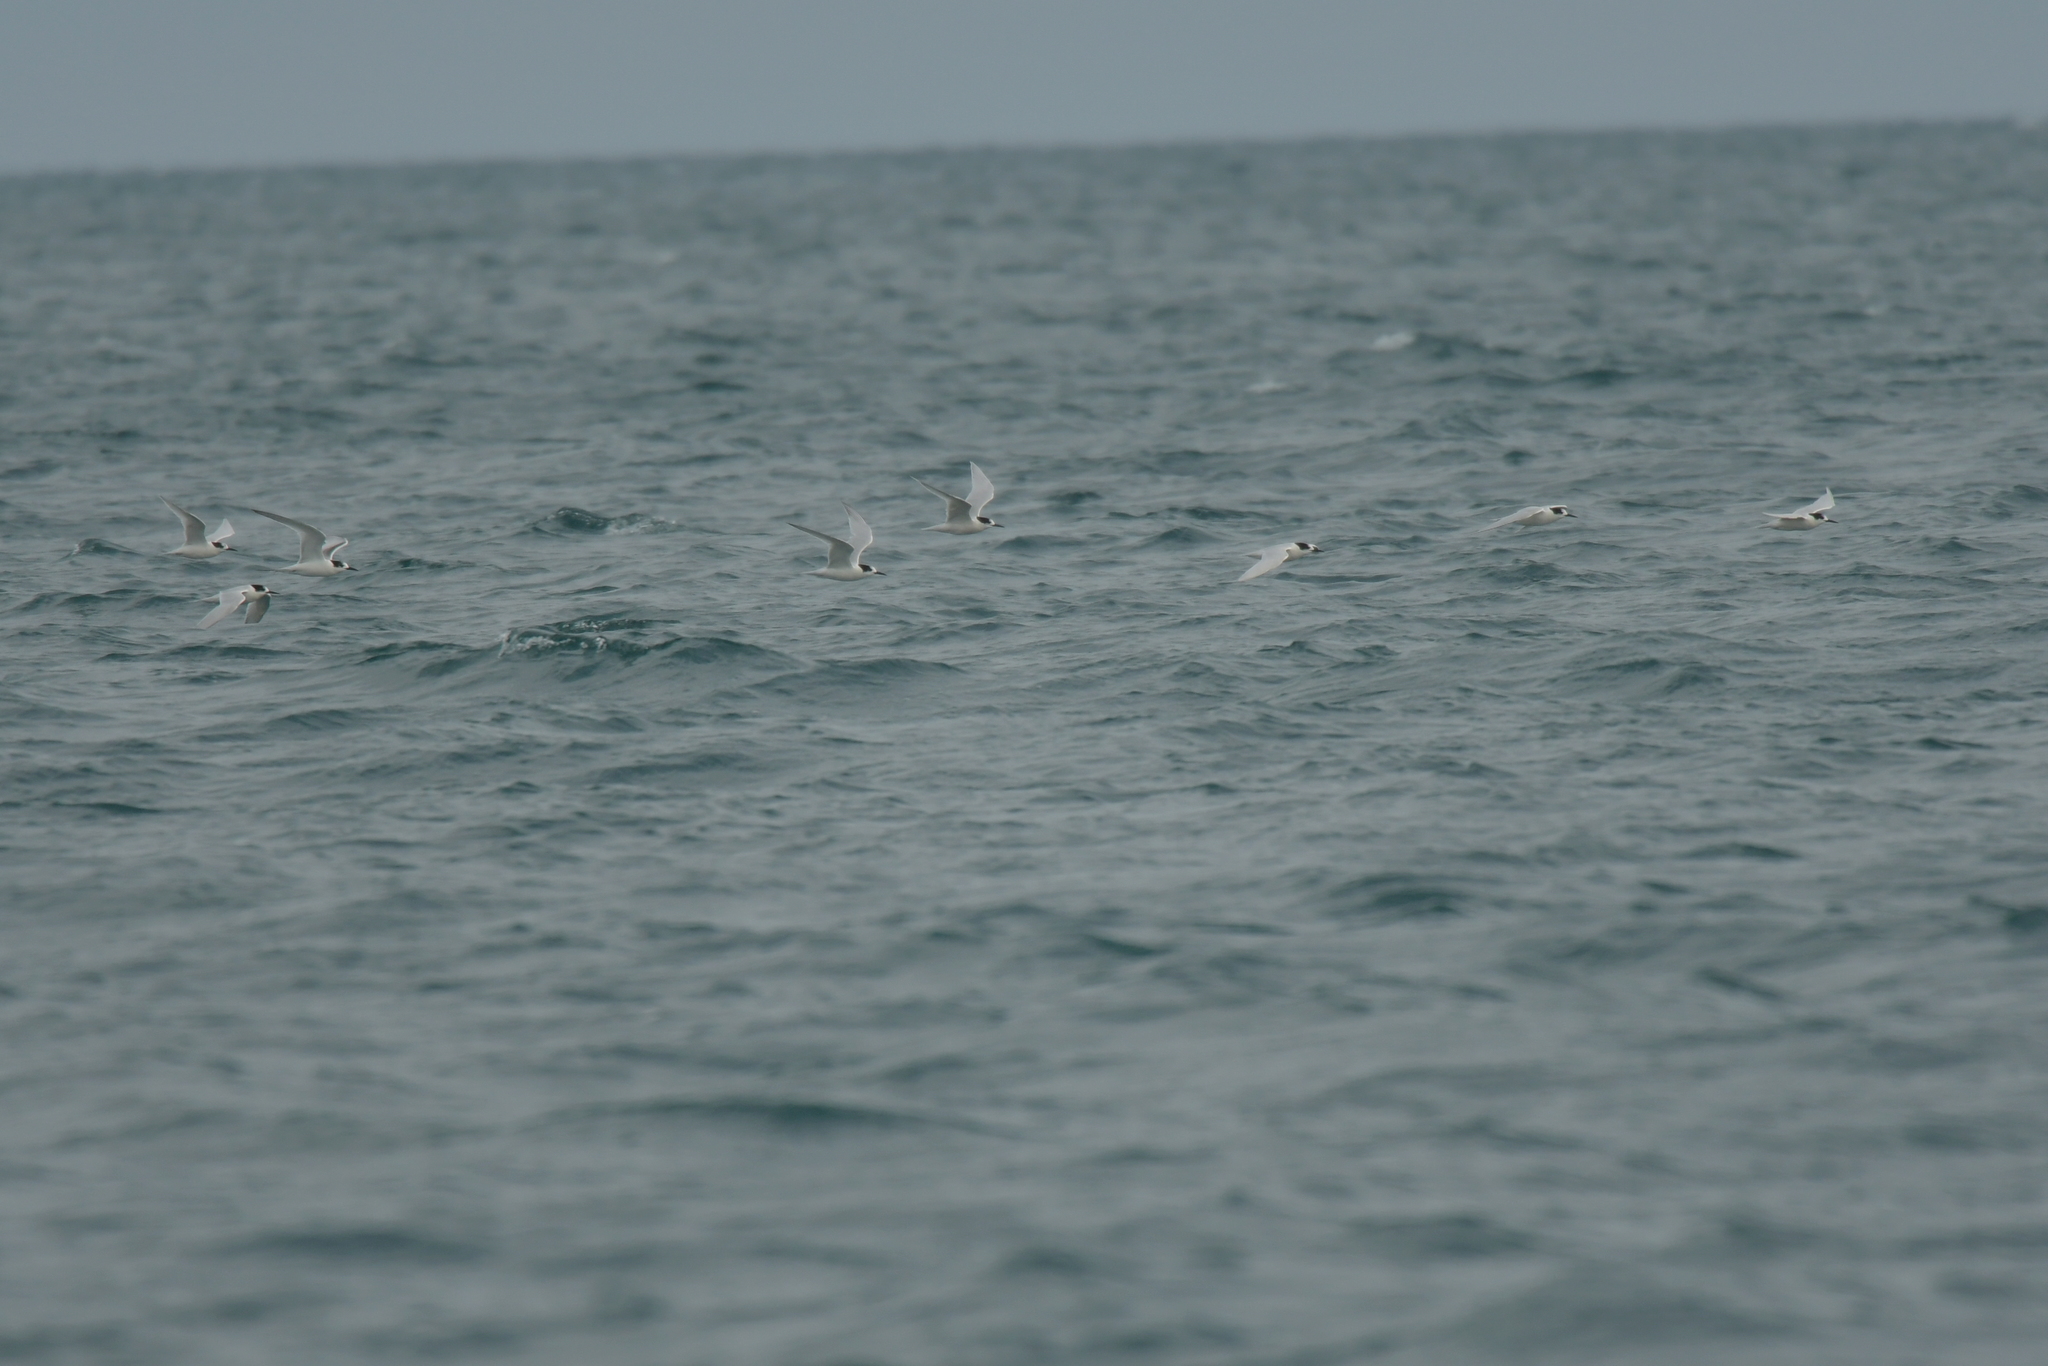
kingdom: Animalia
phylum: Chordata
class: Aves
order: Charadriiformes
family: Laridae
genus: Sterna
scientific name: Sterna striata
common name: White-fronted tern
